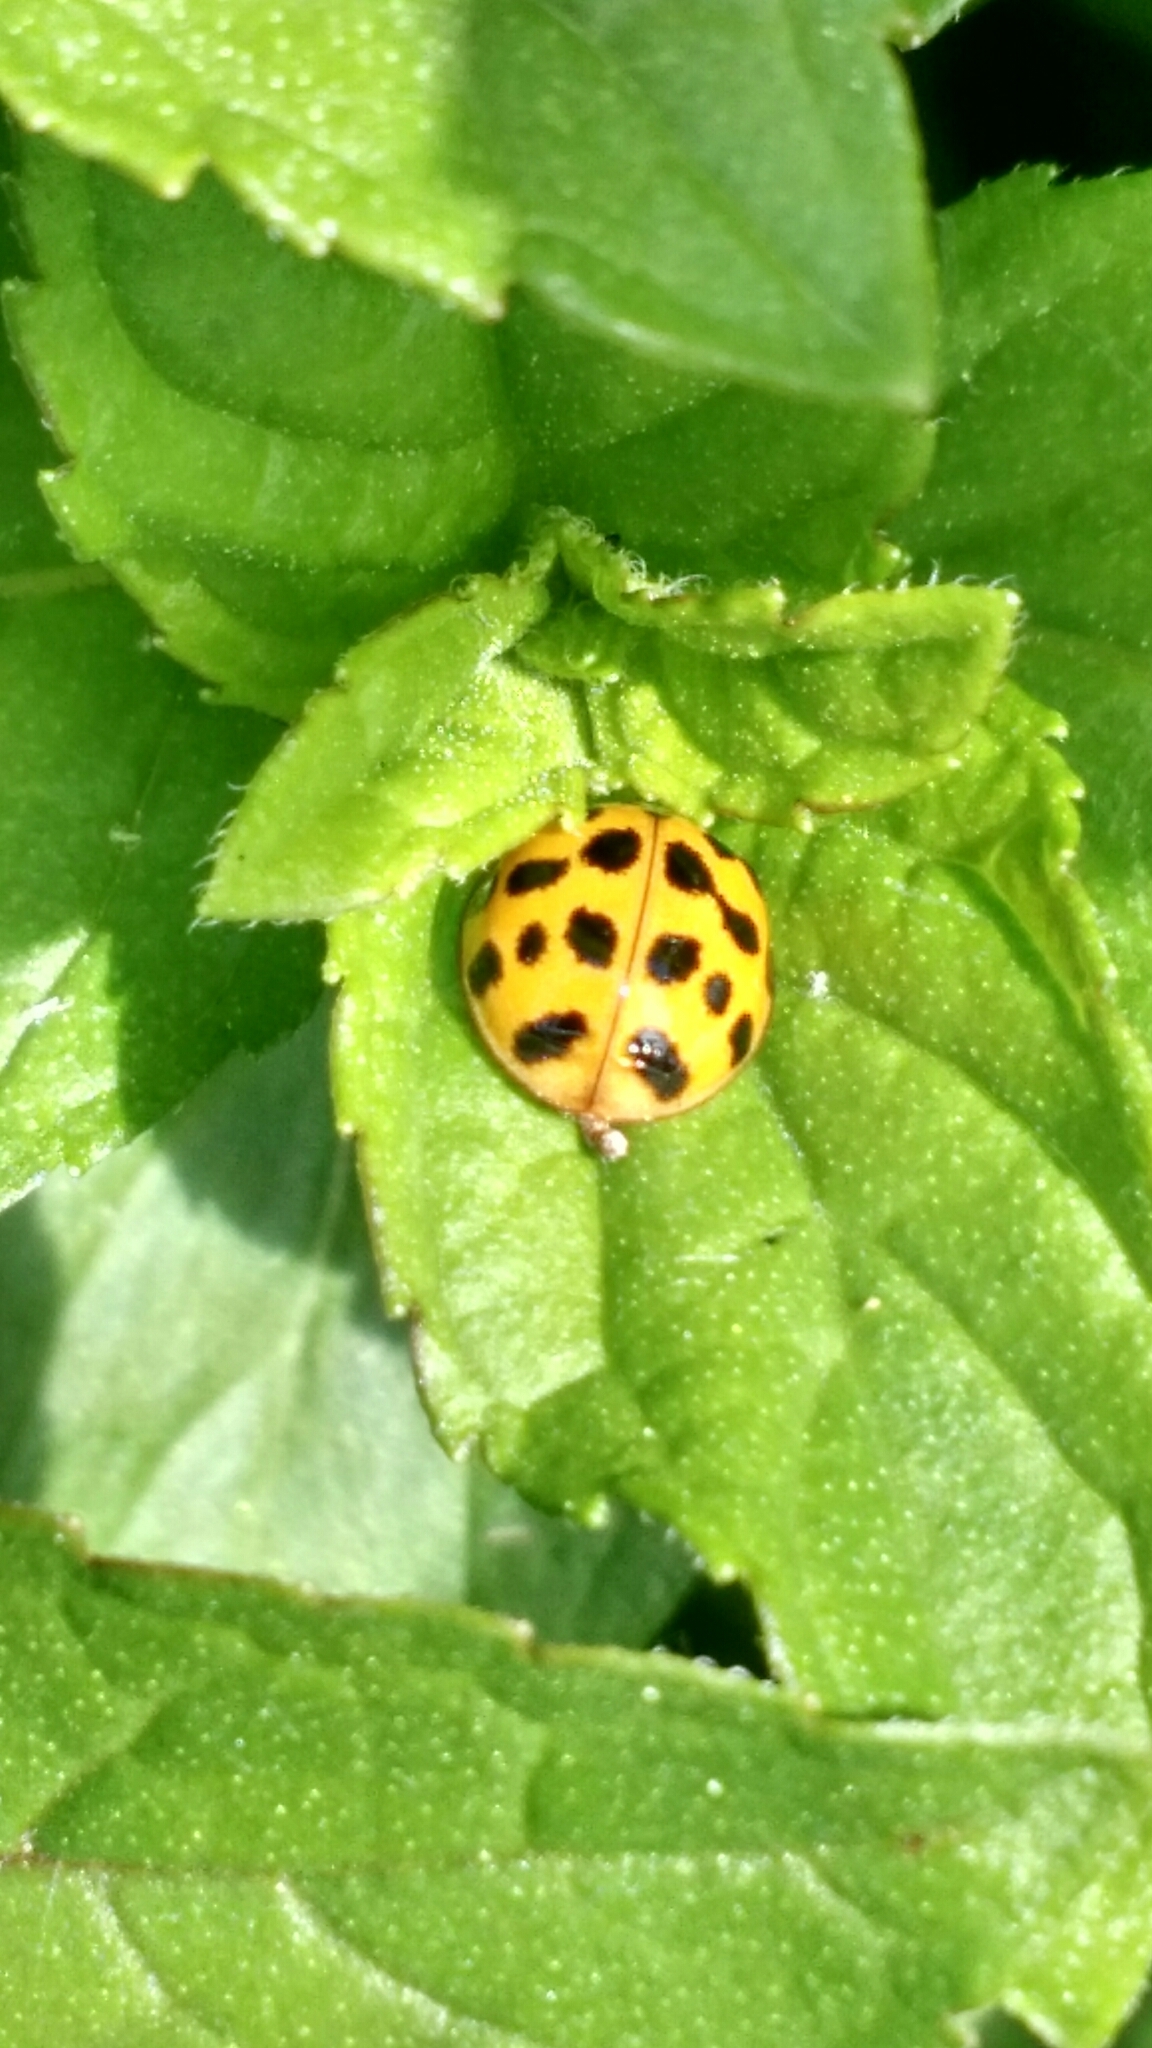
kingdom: Animalia
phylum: Arthropoda
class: Insecta
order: Coleoptera
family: Coccinellidae
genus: Harmonia
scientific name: Harmonia axyridis
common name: Harlequin ladybird
